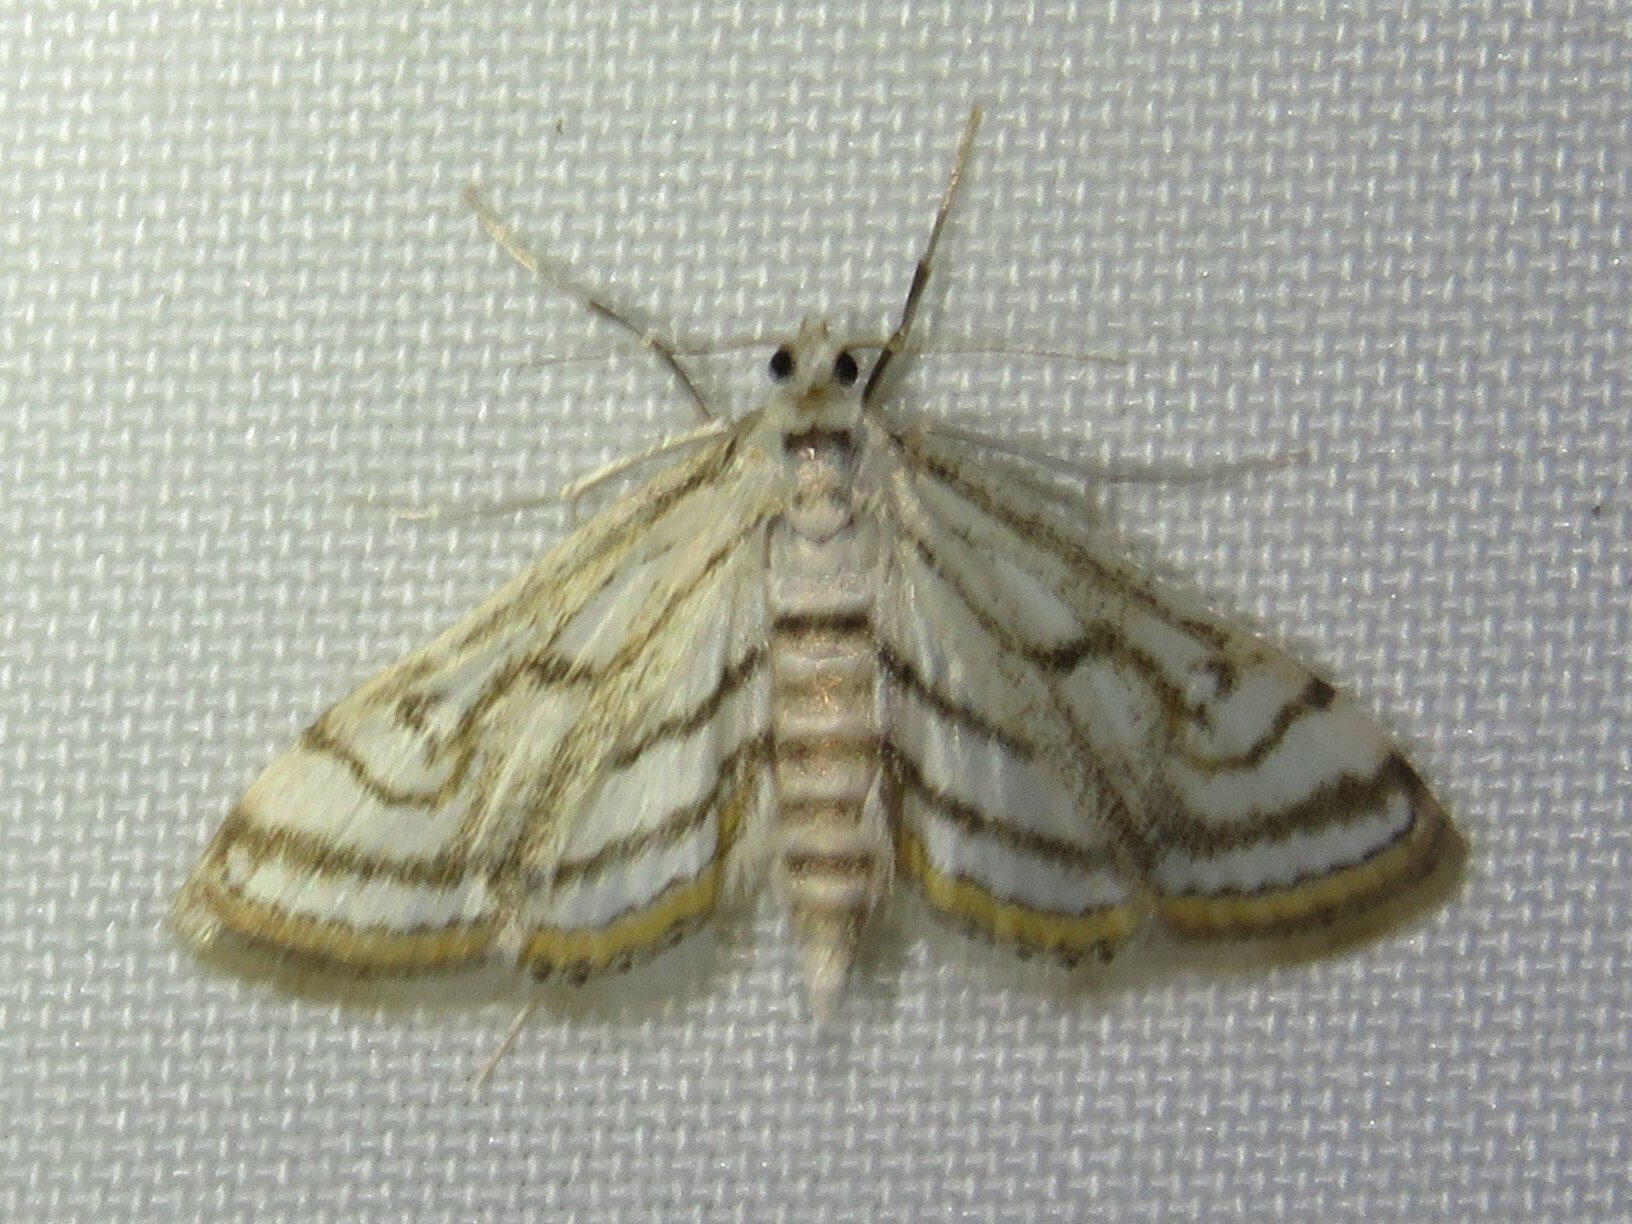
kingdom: Animalia
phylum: Arthropoda
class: Insecta
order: Lepidoptera
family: Crambidae
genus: Parapoynx
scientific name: Parapoynx badiusalis
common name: Chestnut-marked pondweed moth
